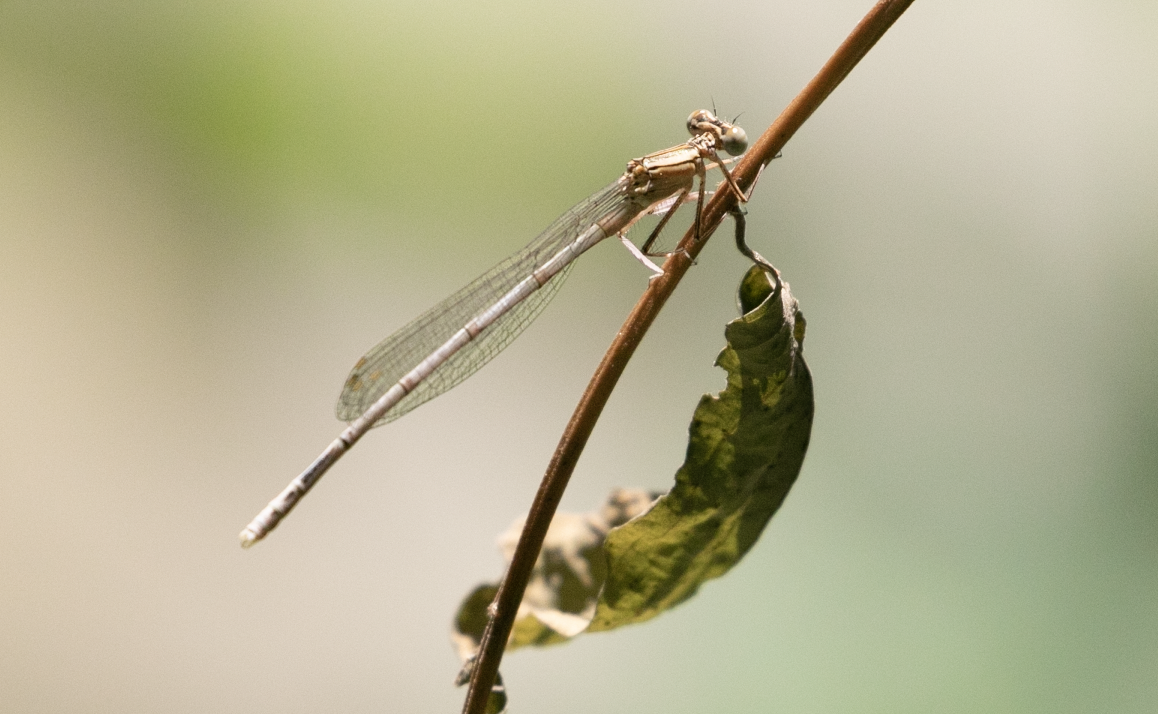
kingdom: Animalia
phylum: Arthropoda
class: Insecta
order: Odonata
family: Platycnemididae
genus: Platycnemis
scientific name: Platycnemis pennipes
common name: White-legged damselfly
